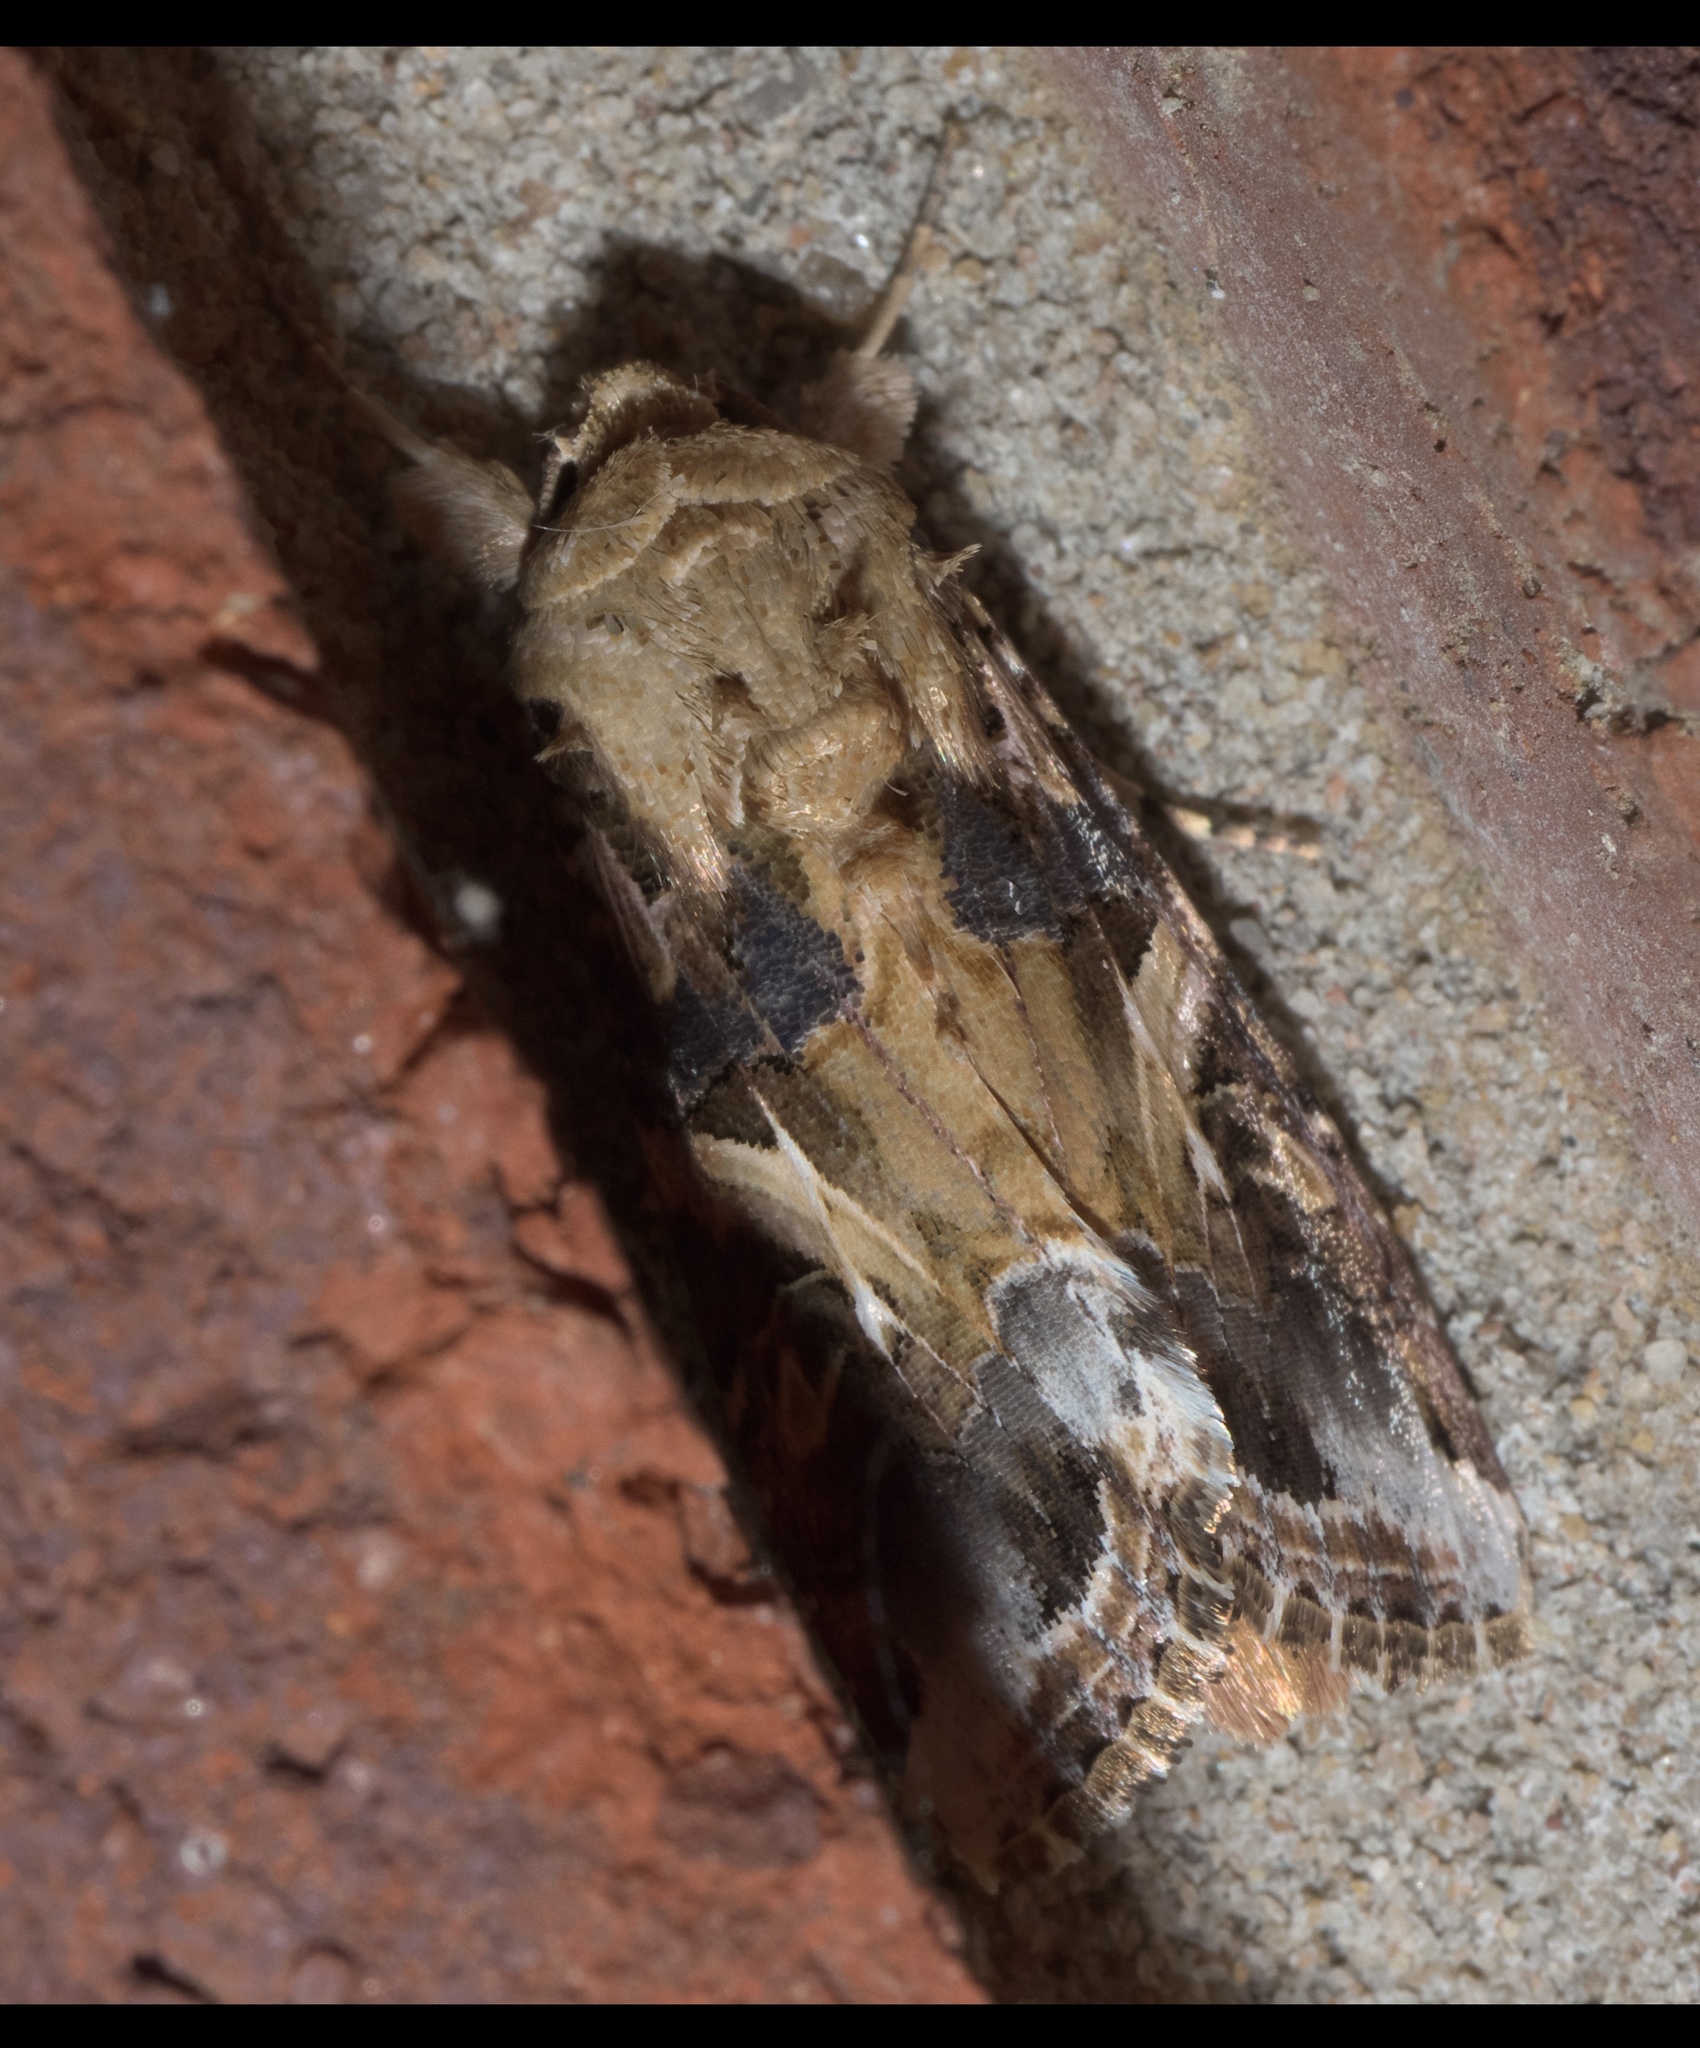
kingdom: Animalia
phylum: Arthropoda
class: Insecta
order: Lepidoptera
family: Noctuidae
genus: Spodoptera
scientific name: Spodoptera ornithogalli
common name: Yellow-striped armyworm
